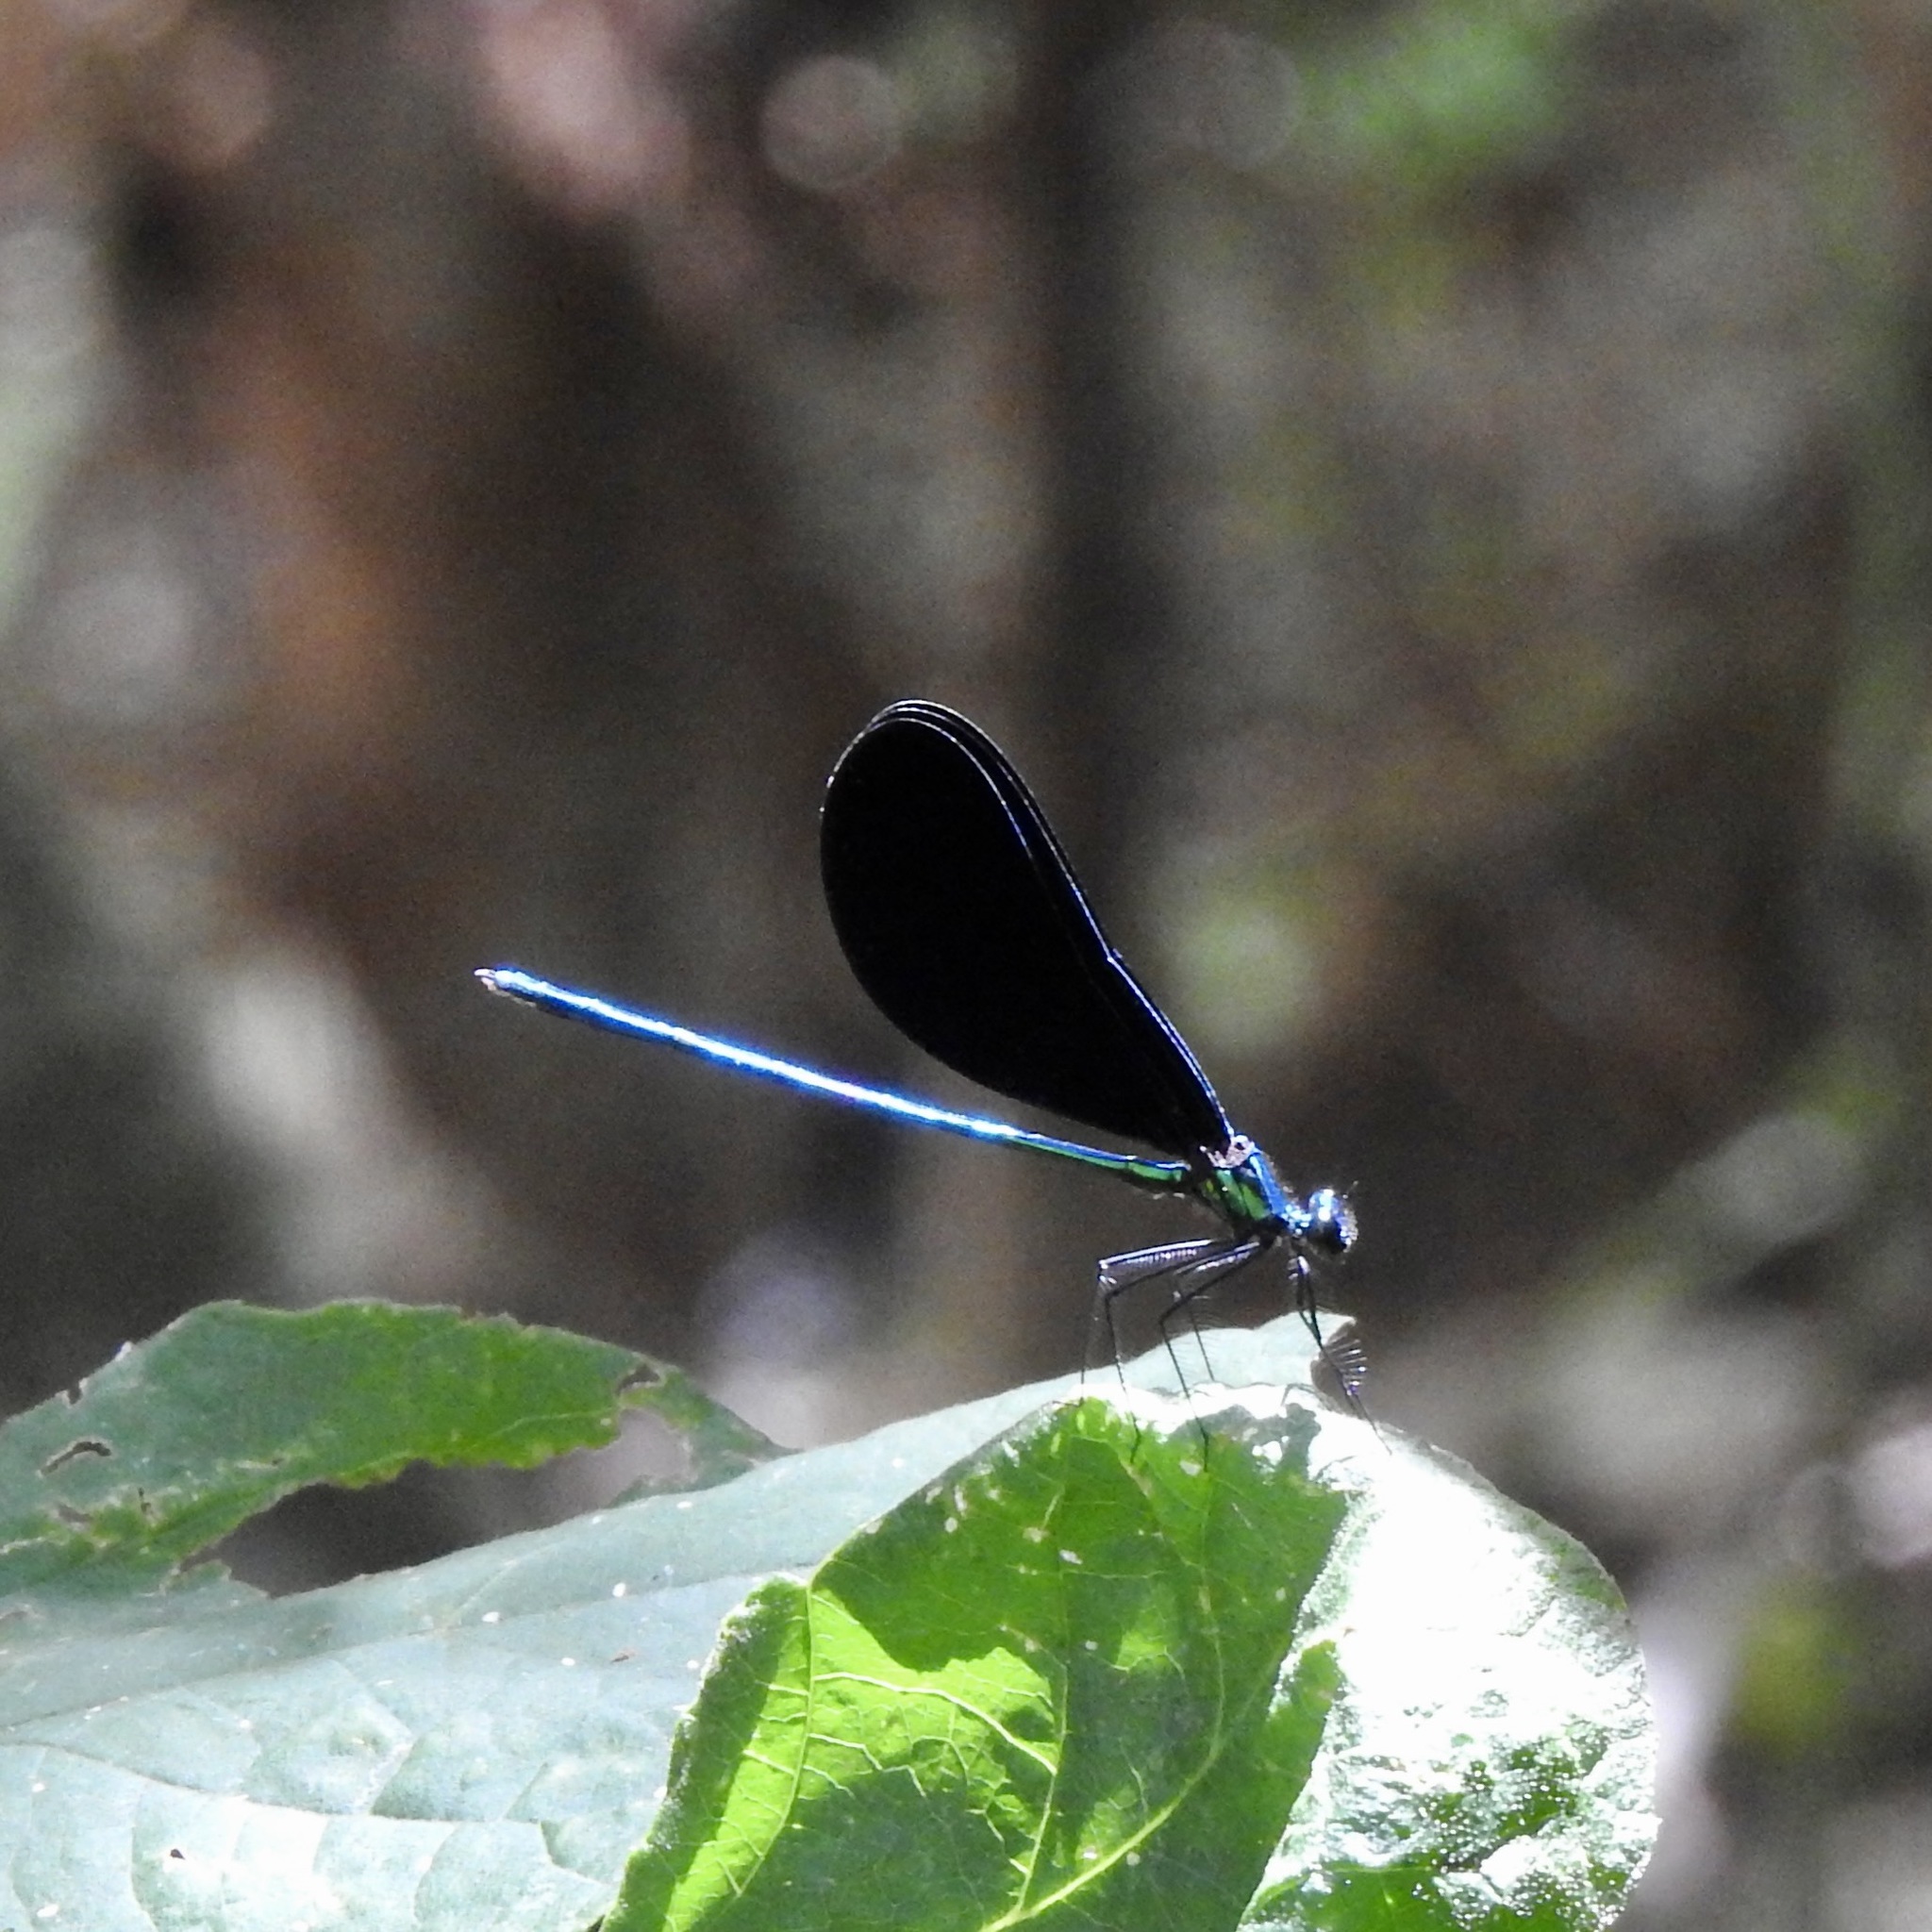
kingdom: Animalia
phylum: Arthropoda
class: Insecta
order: Odonata
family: Calopterygidae
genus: Calopteryx
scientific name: Calopteryx maculata
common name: Ebony jewelwing
